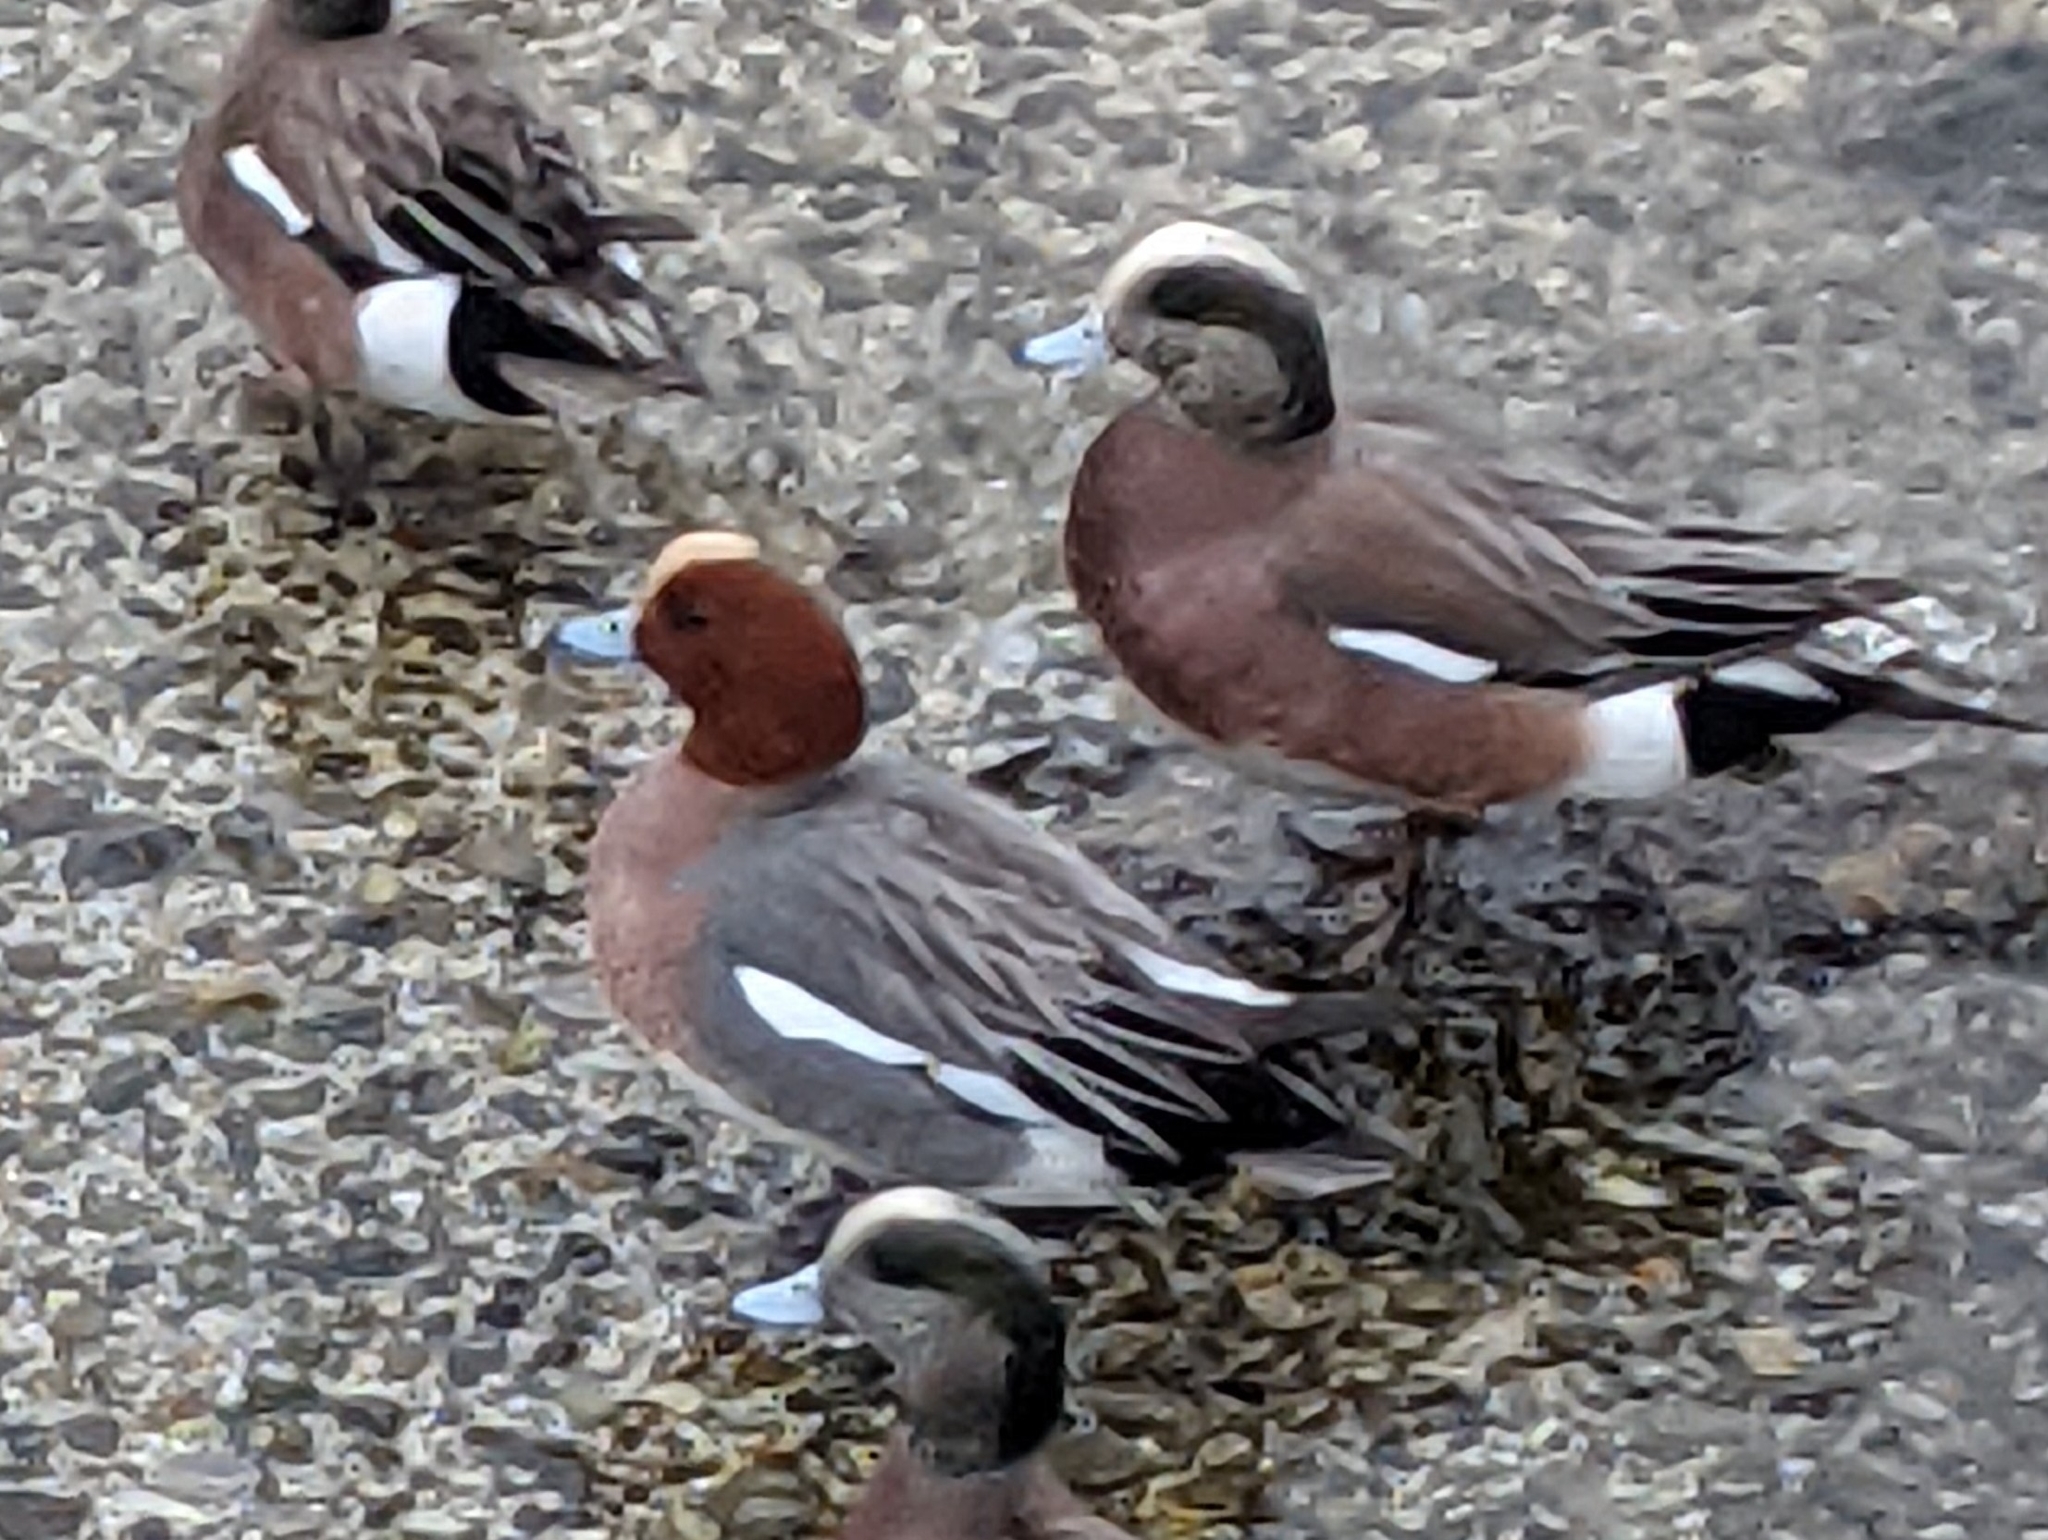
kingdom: Animalia
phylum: Chordata
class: Aves
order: Anseriformes
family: Anatidae
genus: Mareca
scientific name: Mareca penelope
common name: Eurasian wigeon
